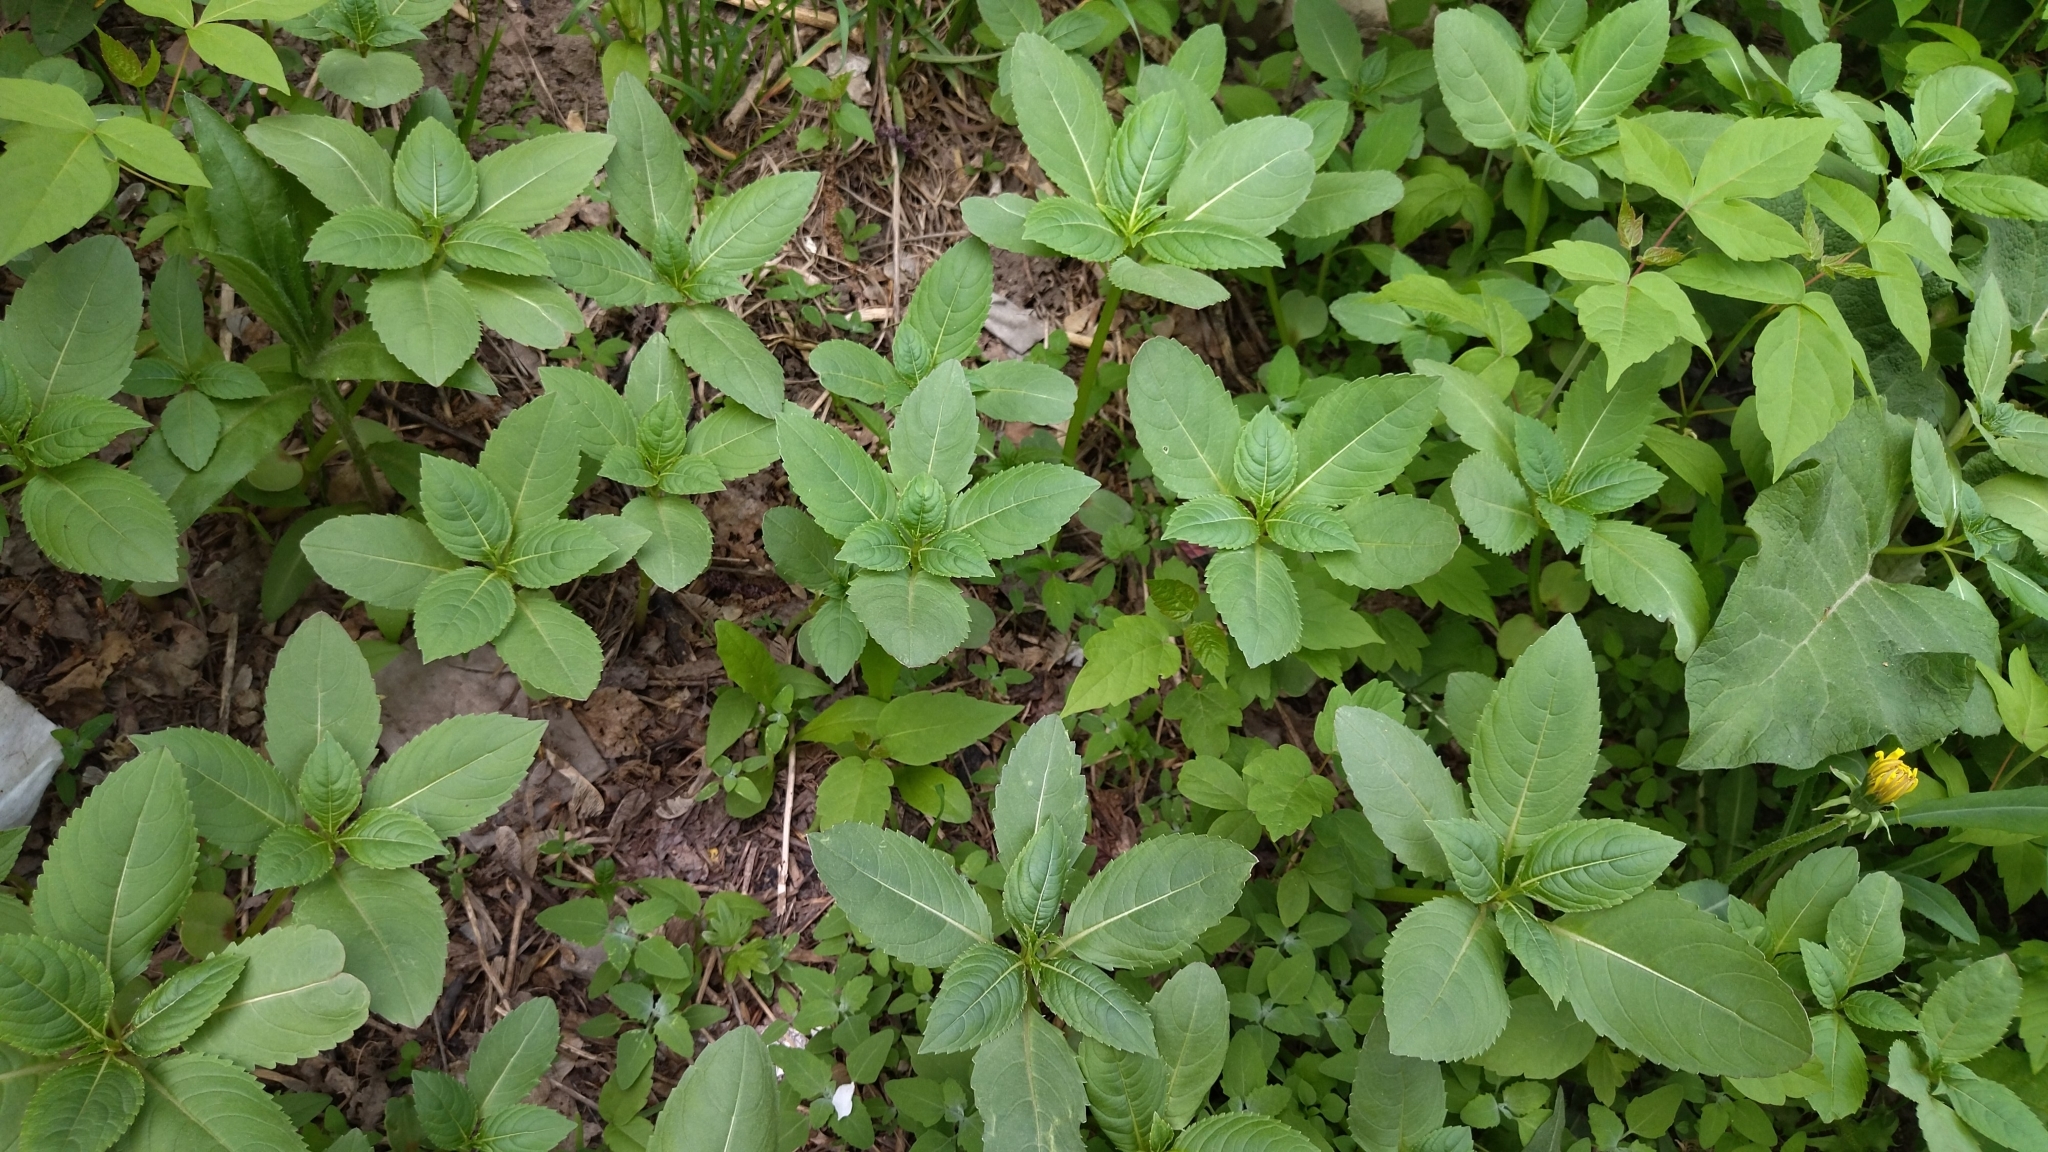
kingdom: Plantae
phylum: Tracheophyta
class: Magnoliopsida
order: Ericales
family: Balsaminaceae
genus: Impatiens
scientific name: Impatiens glandulifera
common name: Himalayan balsam
